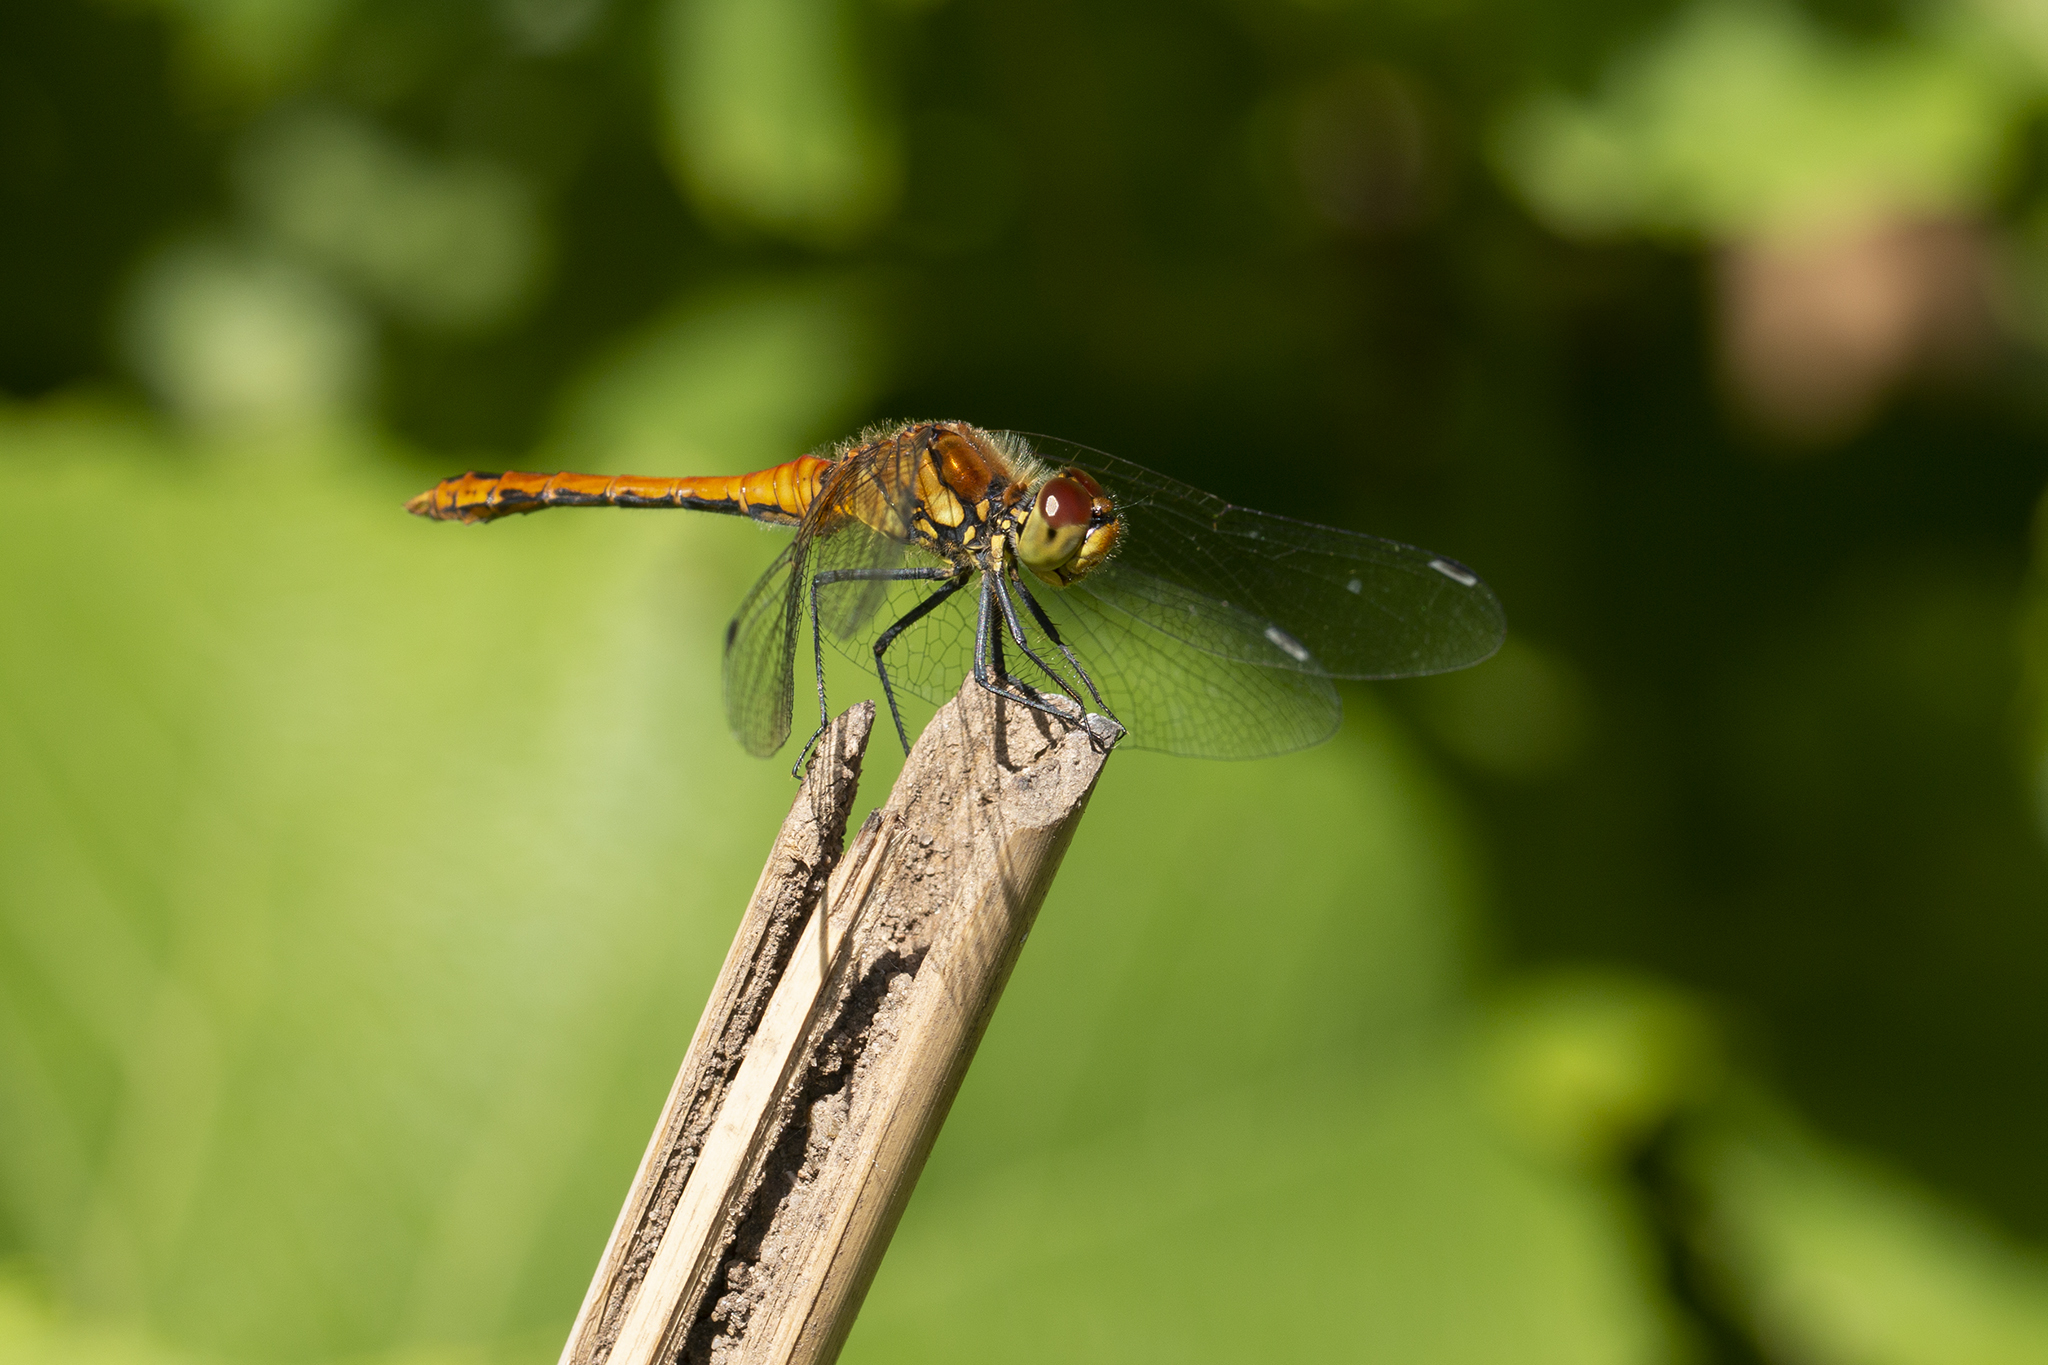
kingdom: Animalia
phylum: Arthropoda
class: Insecta
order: Odonata
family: Libellulidae
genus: Sympetrum
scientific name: Sympetrum sanguineum
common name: Ruddy darter
